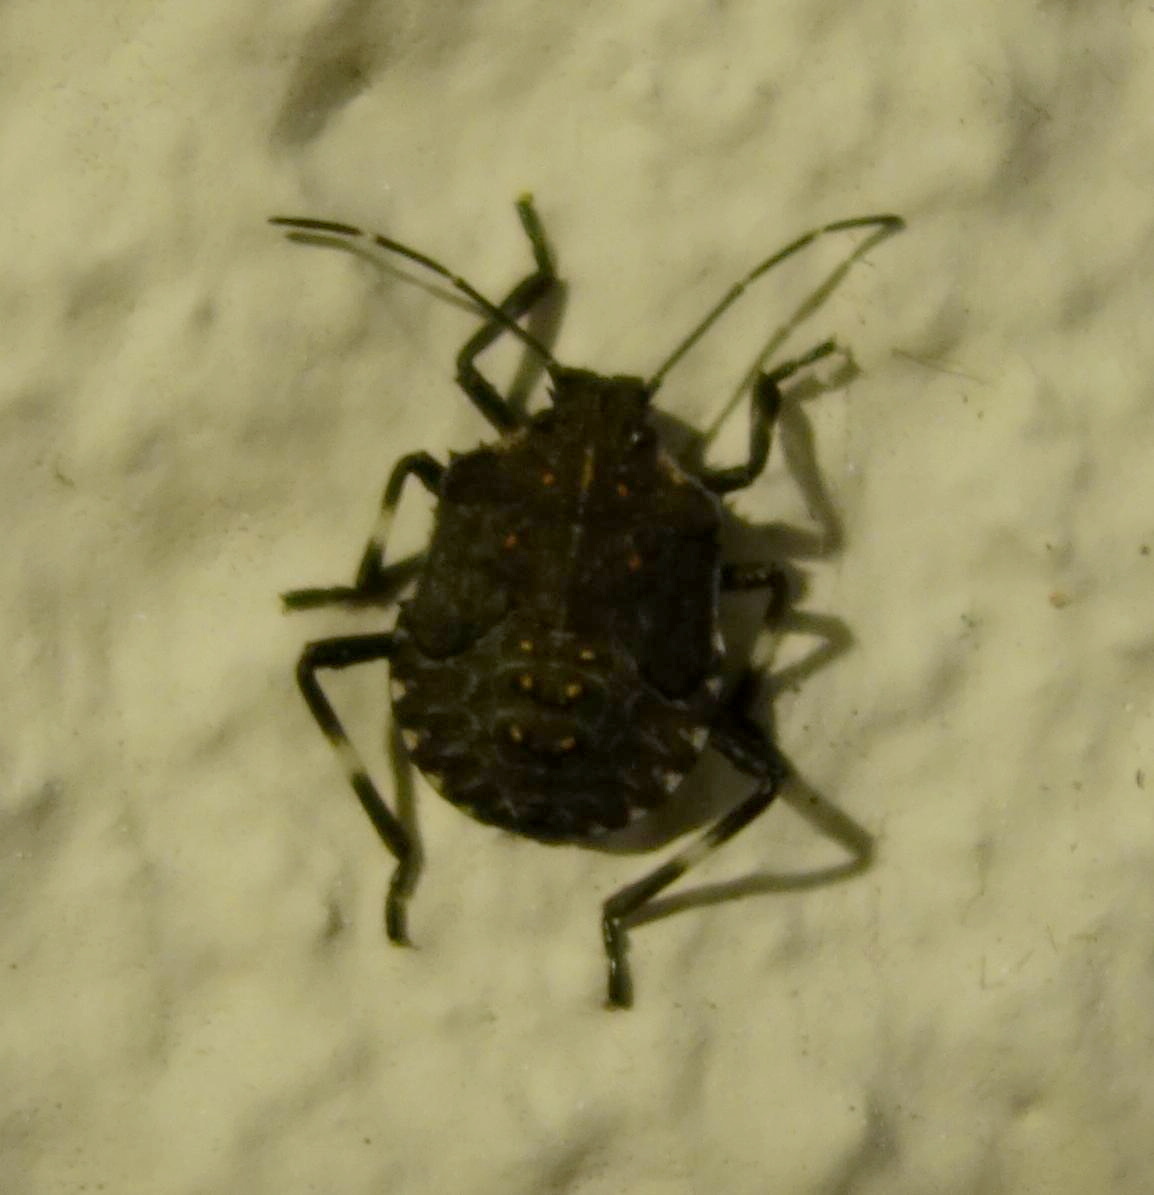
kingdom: Animalia
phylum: Arthropoda
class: Insecta
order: Hemiptera
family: Pentatomidae
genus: Halyomorpha
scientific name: Halyomorpha halys
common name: Brown marmorated stink bug
